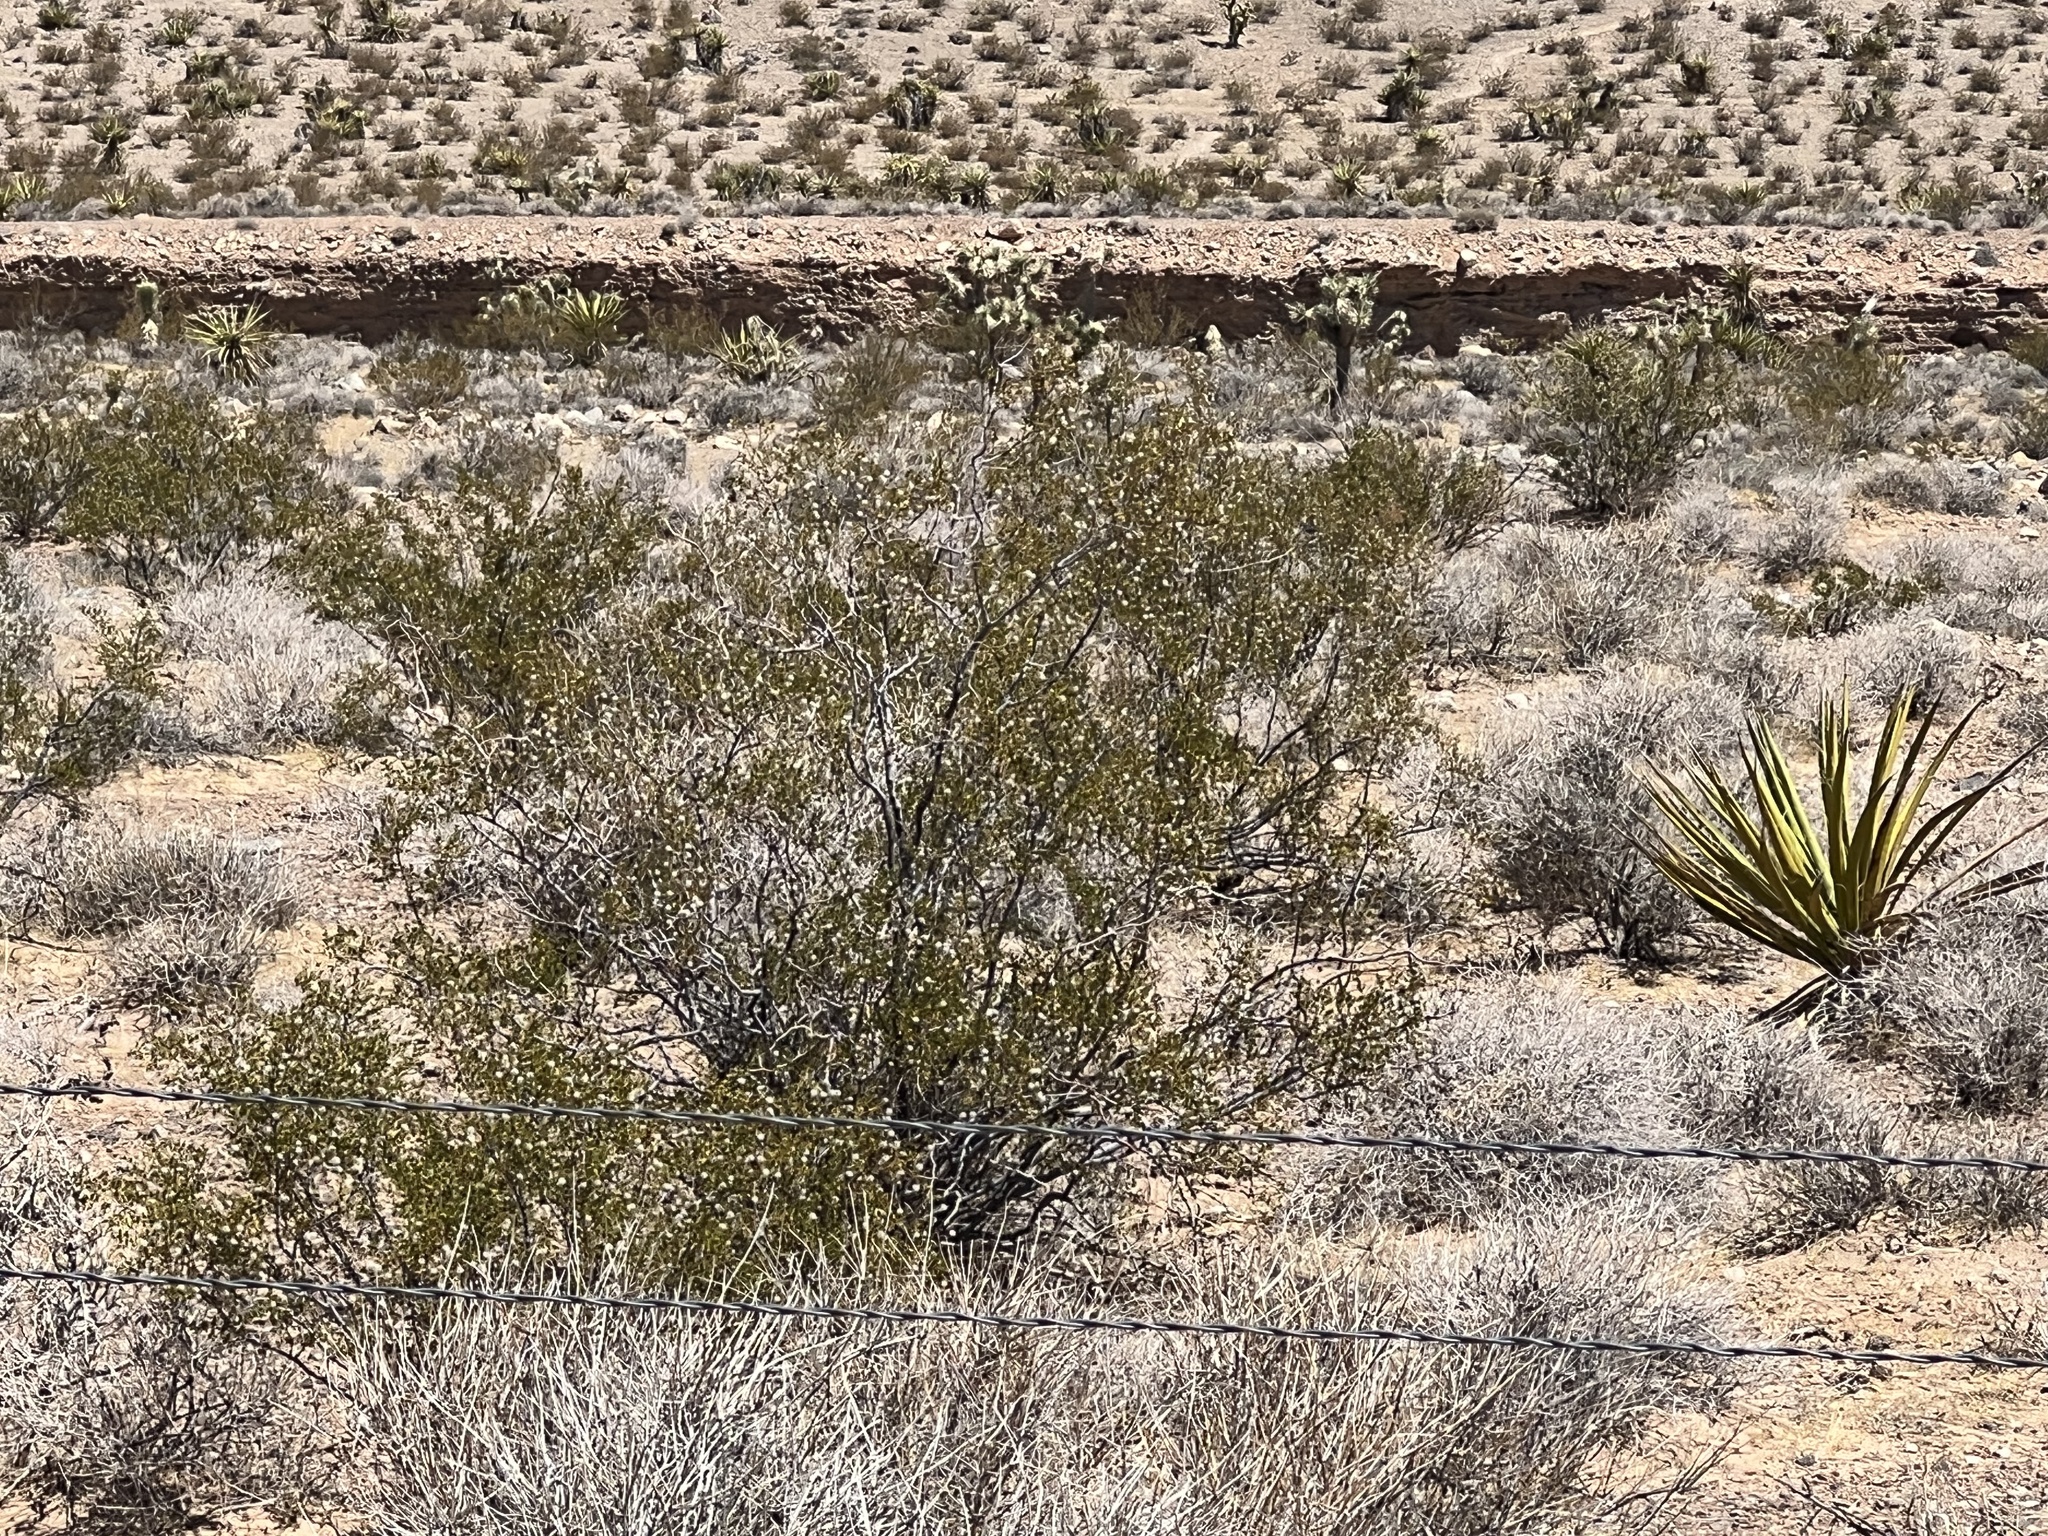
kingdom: Plantae
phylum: Tracheophyta
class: Magnoliopsida
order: Zygophyllales
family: Zygophyllaceae
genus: Larrea
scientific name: Larrea tridentata
